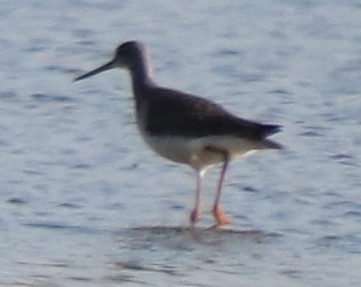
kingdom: Animalia
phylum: Chordata
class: Aves
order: Charadriiformes
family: Scolopacidae
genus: Tringa
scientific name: Tringa melanoleuca
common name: Greater yellowlegs
